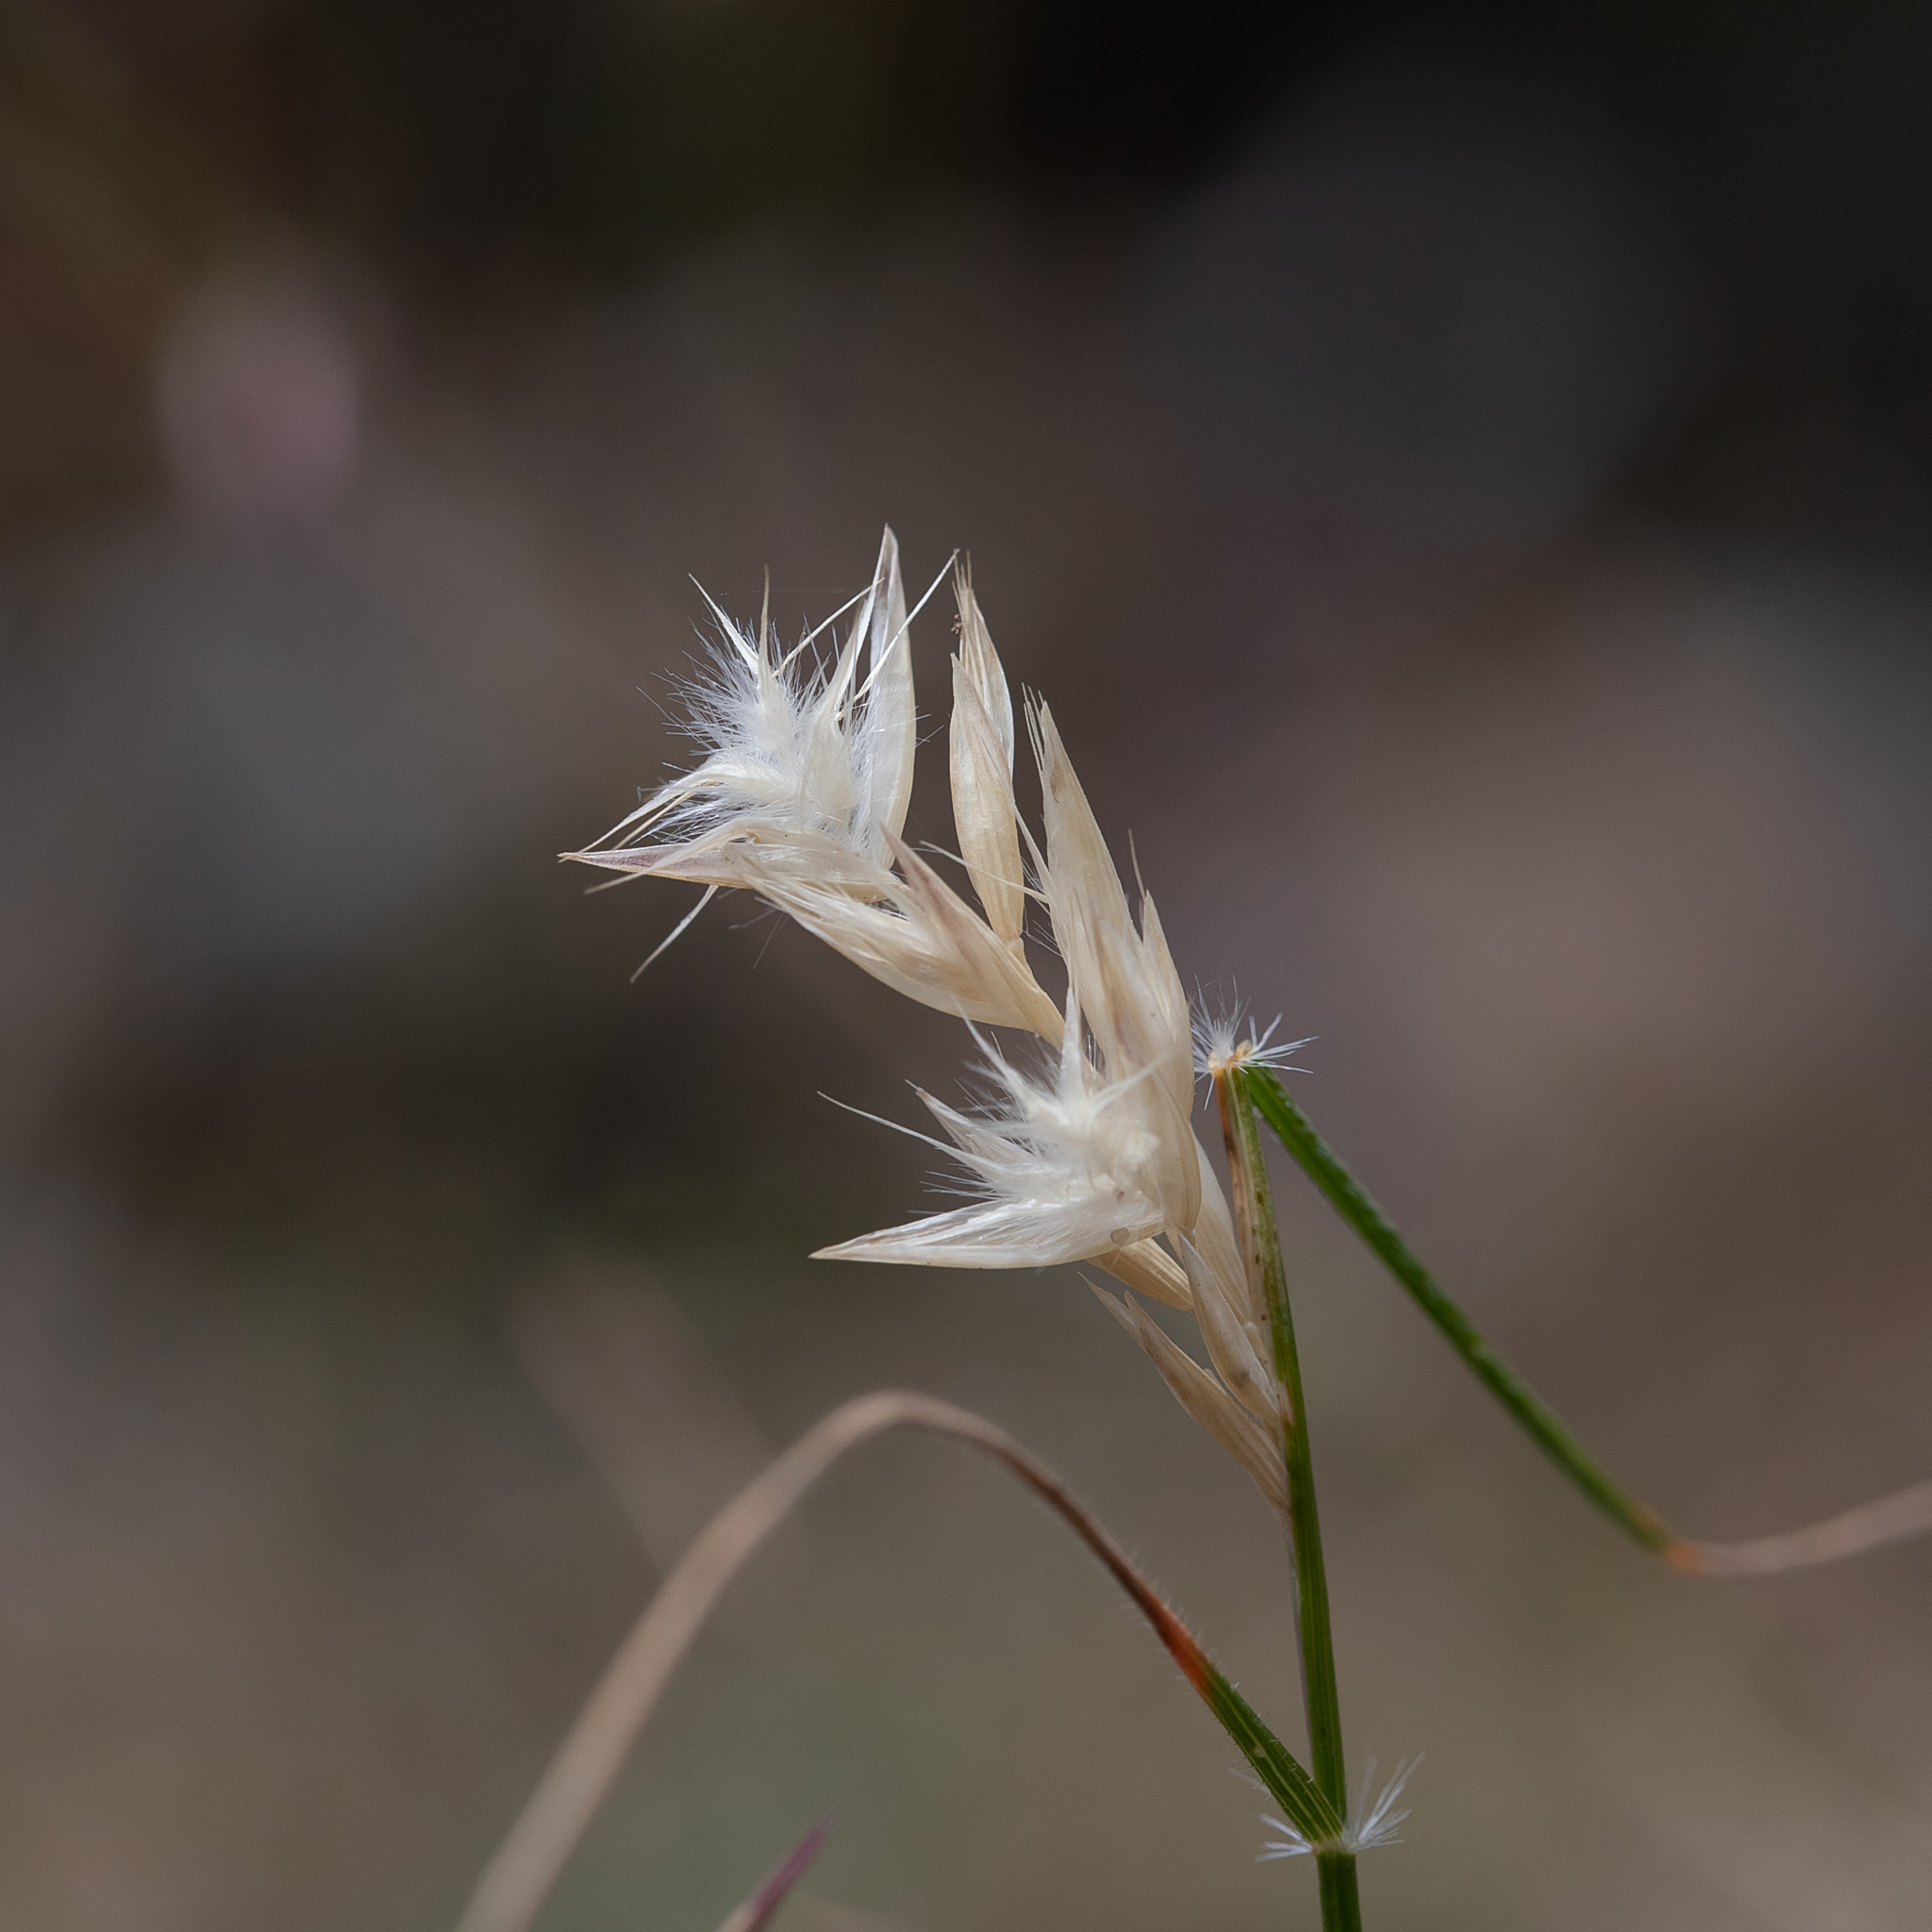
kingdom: Plantae
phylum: Tracheophyta
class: Liliopsida
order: Poales
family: Poaceae
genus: Rytidosperma
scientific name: Rytidosperma geniculatum
